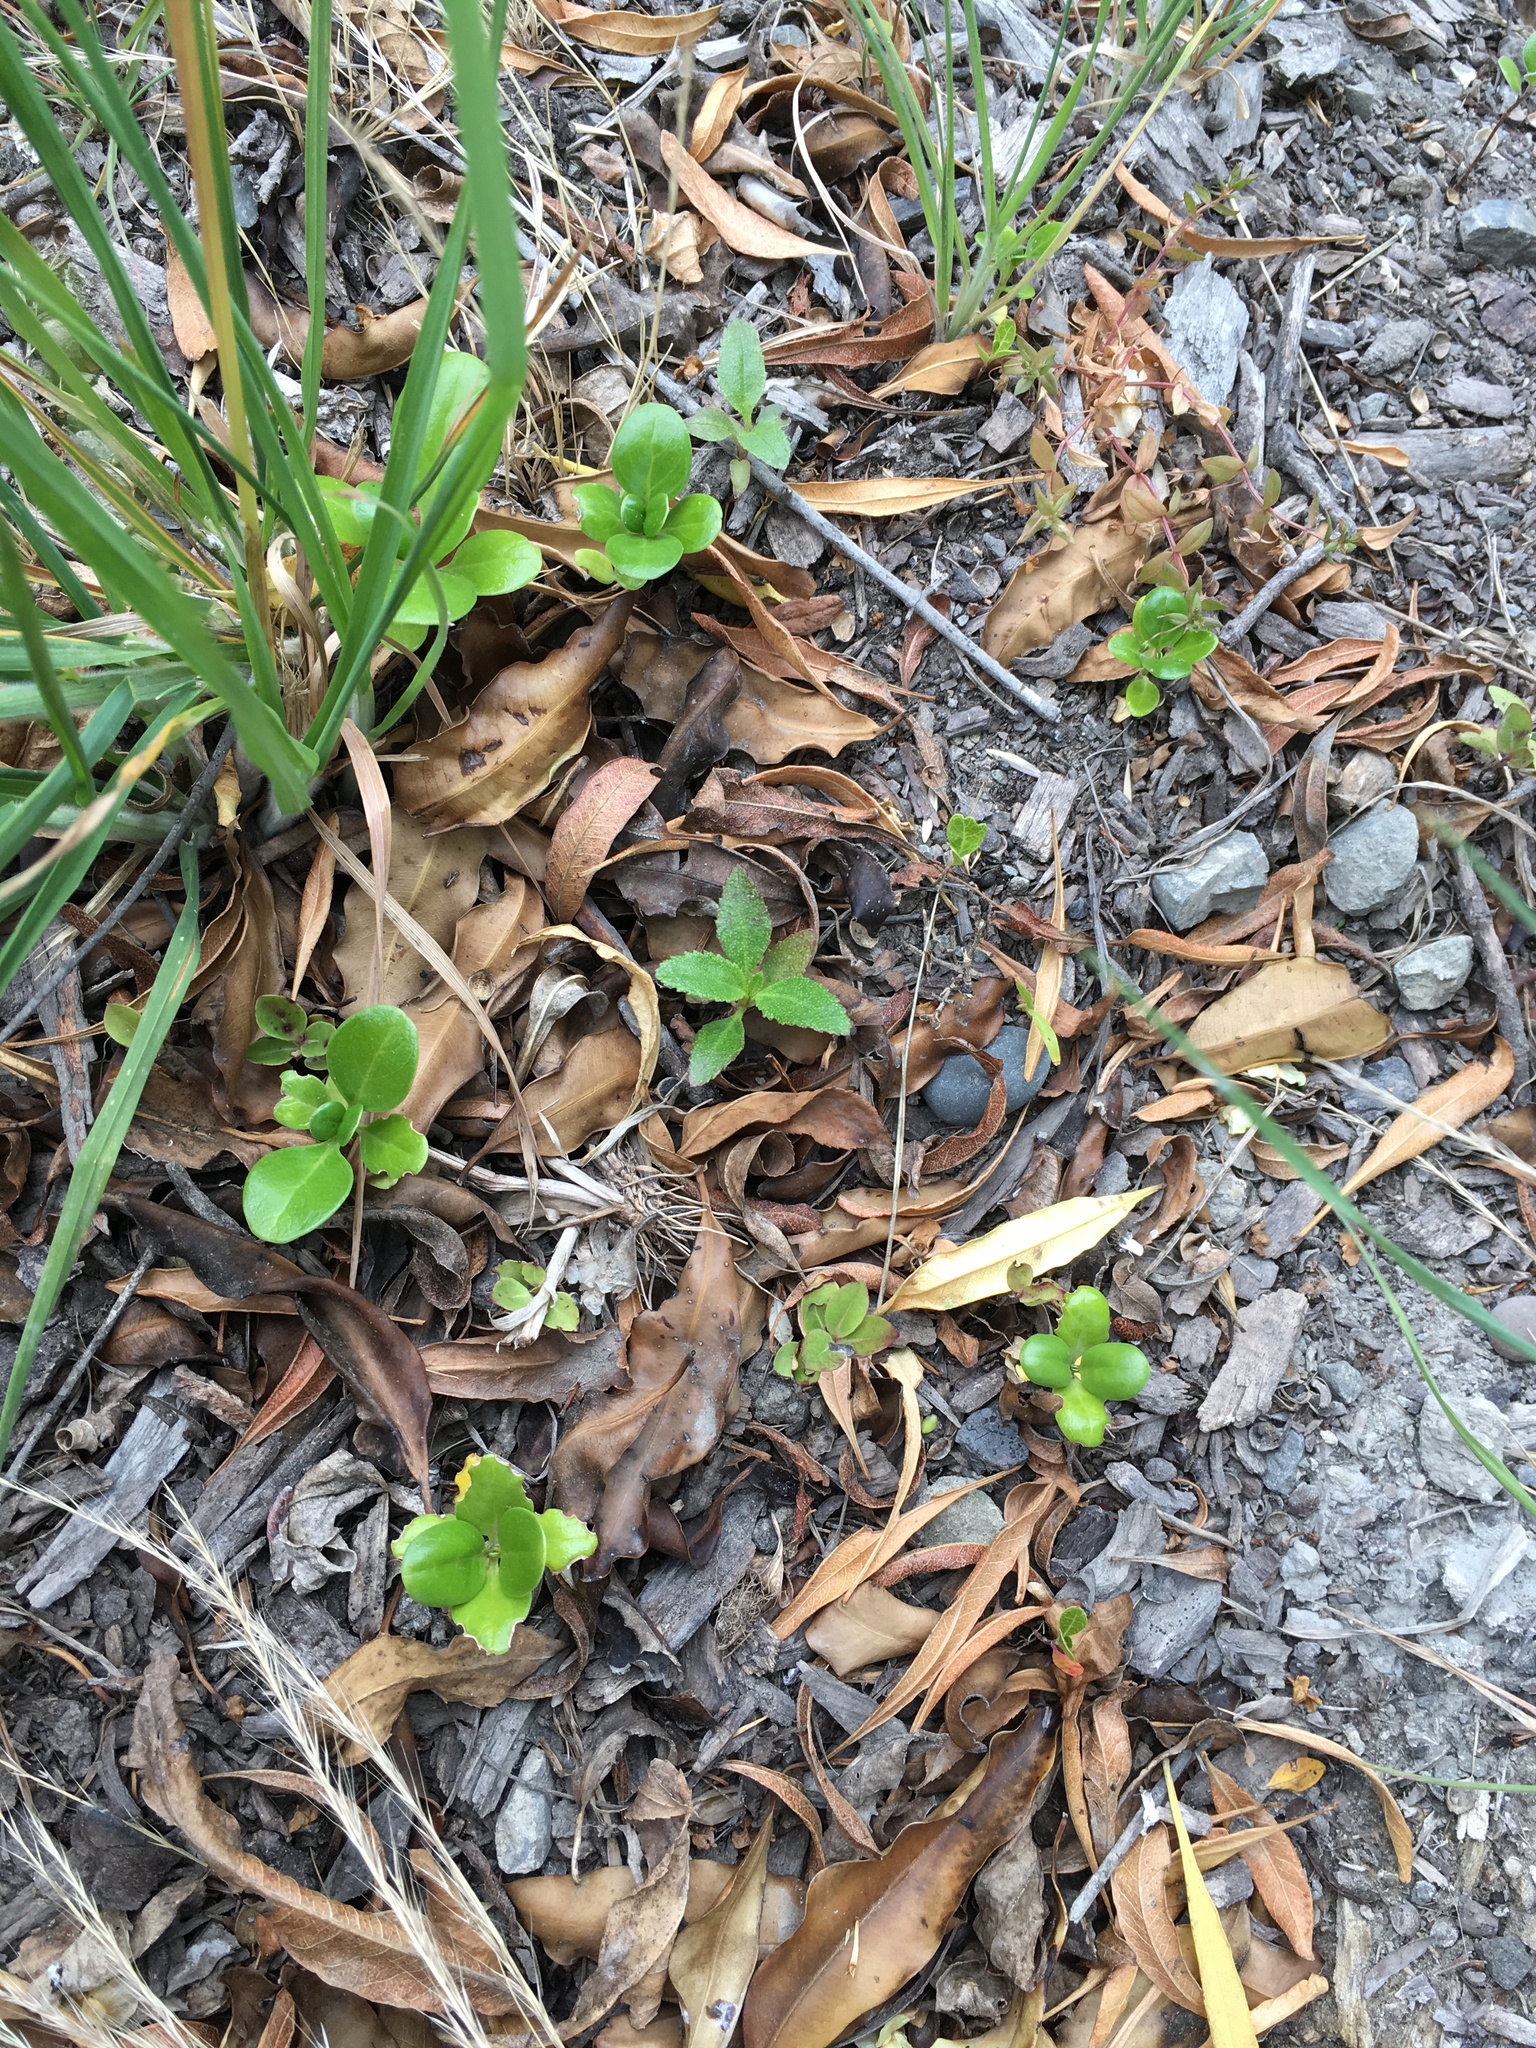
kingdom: Plantae
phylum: Tracheophyta
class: Magnoliopsida
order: Lamiales
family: Scrophulariaceae
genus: Myoporum
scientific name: Myoporum laetum
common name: Ngaio tree
